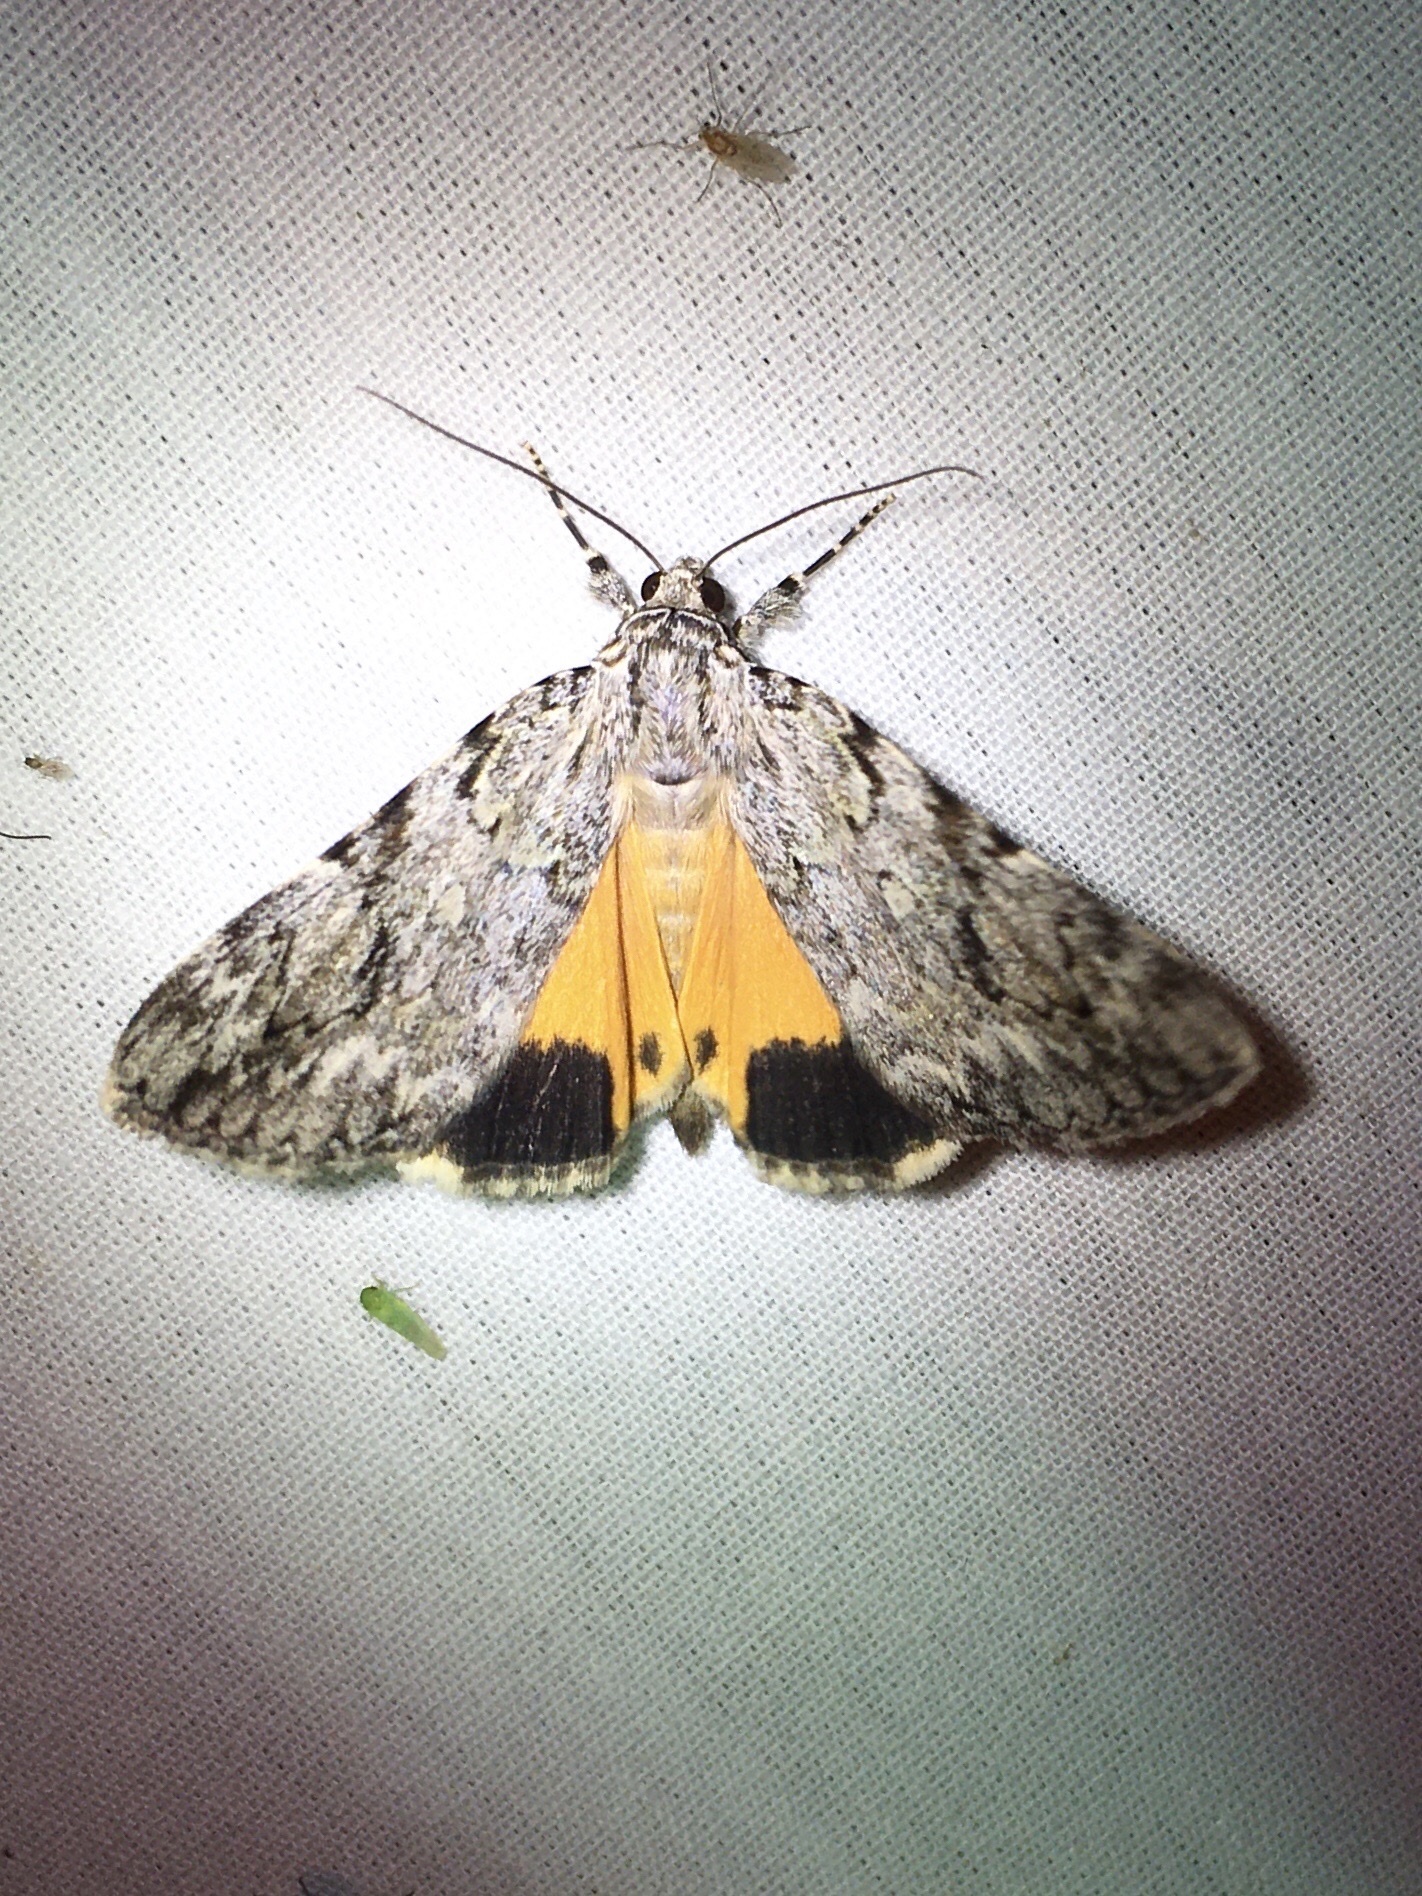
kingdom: Animalia
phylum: Arthropoda
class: Insecta
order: Lepidoptera
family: Erebidae
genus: Catocala
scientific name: Catocala amica
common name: Girlfriend underwing
